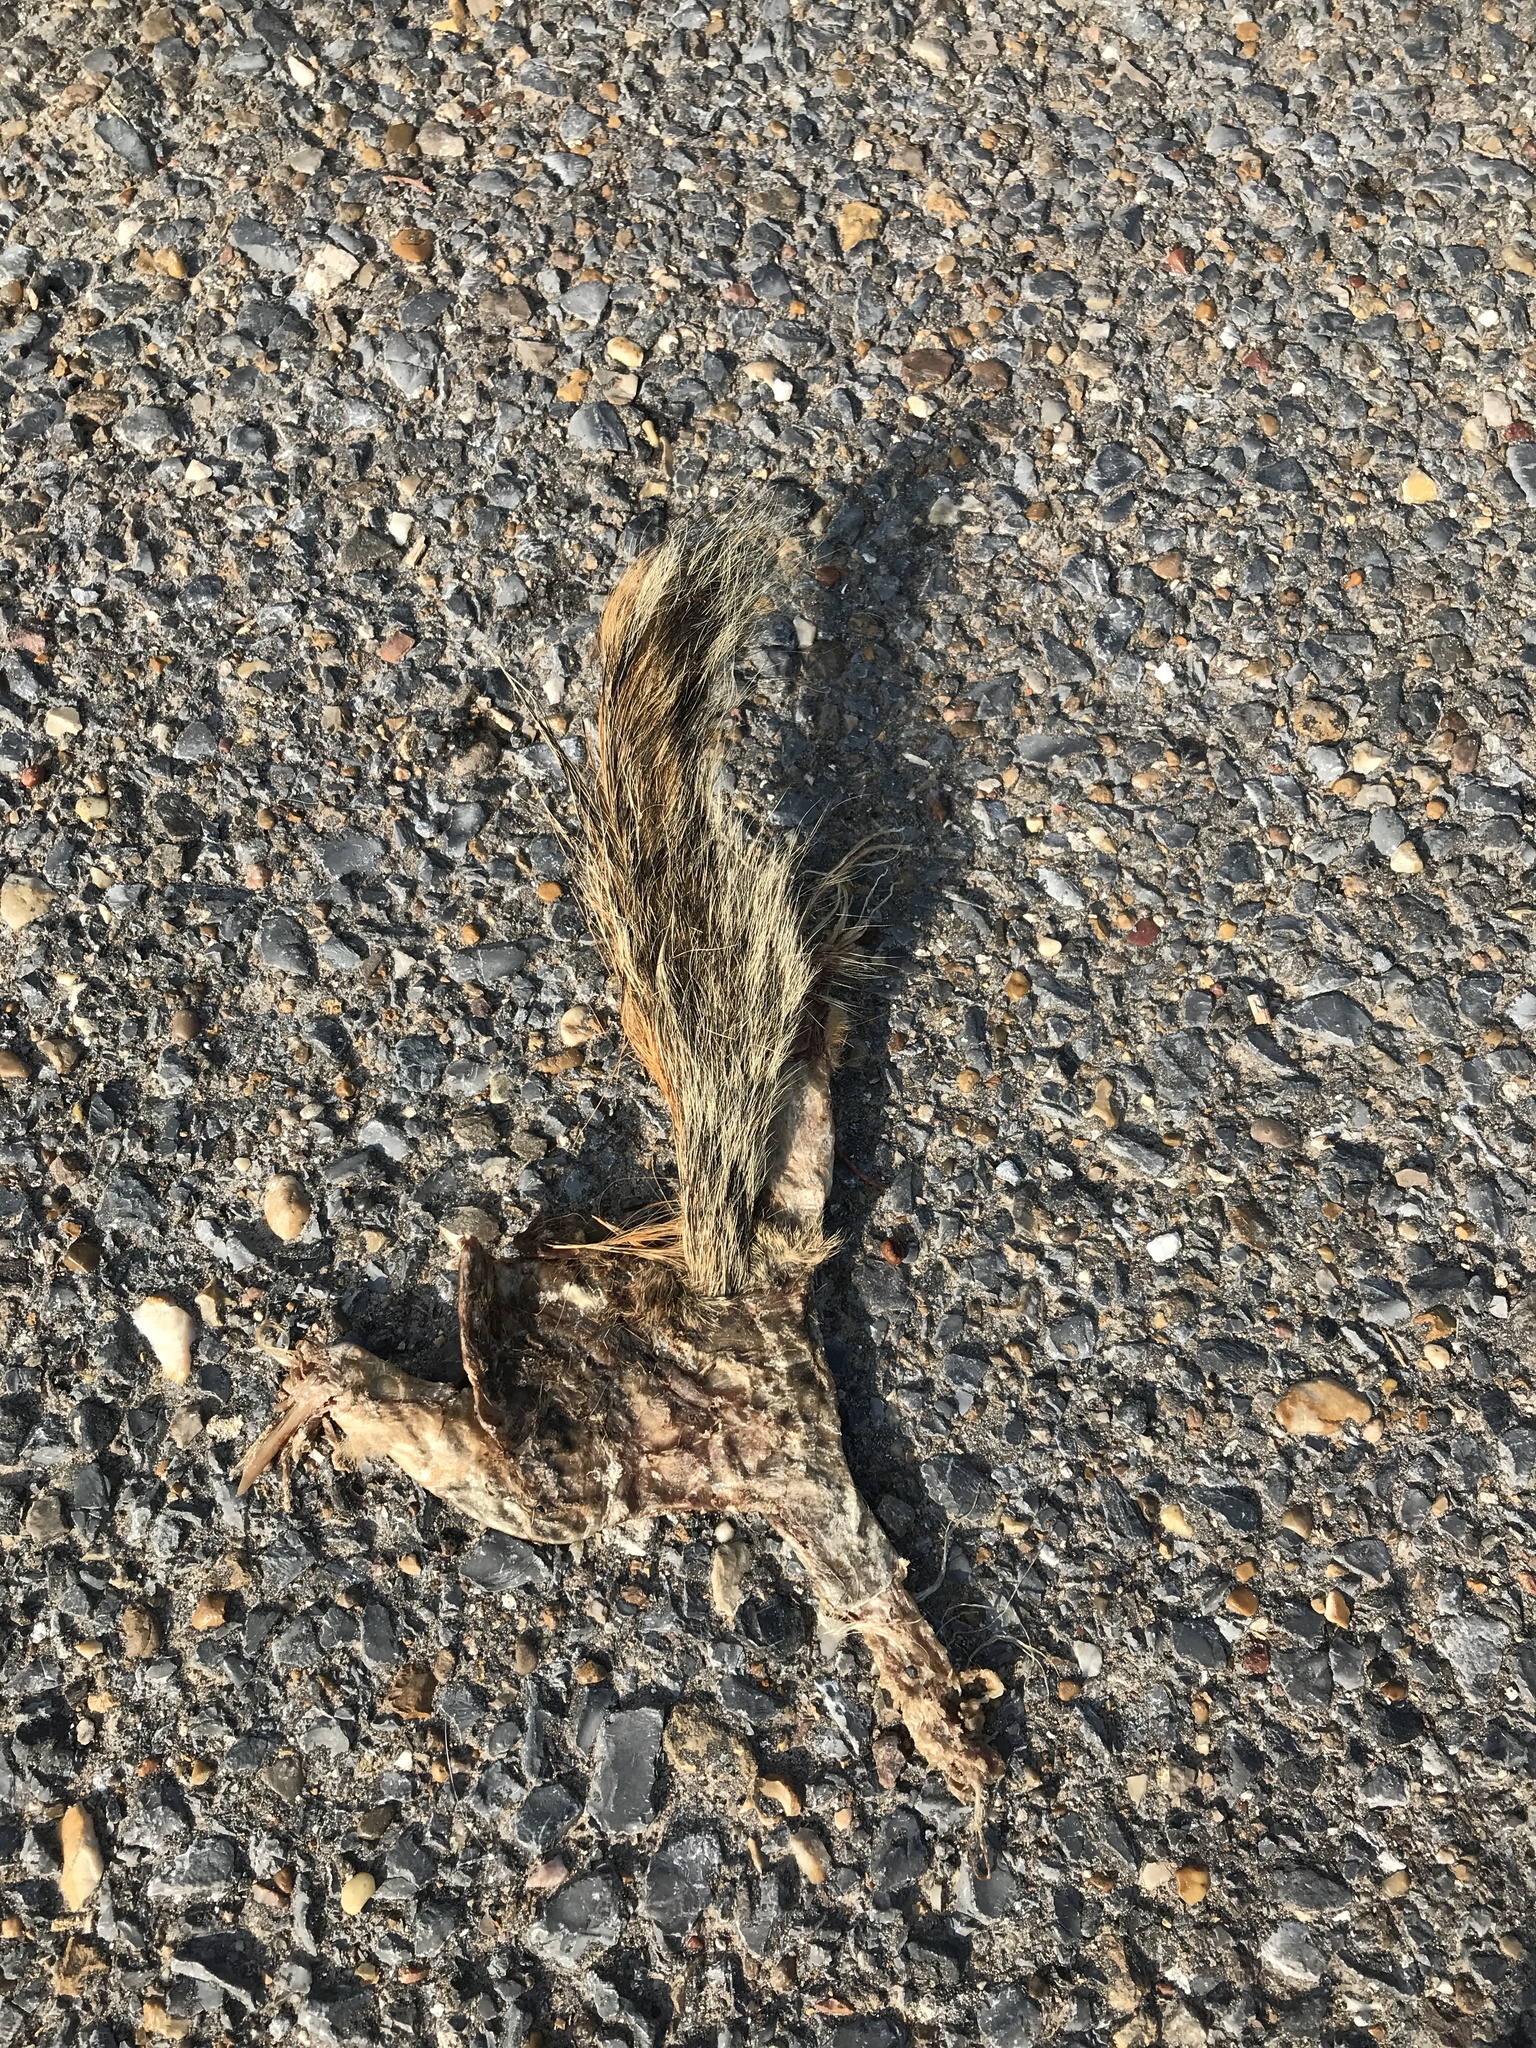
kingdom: Animalia
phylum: Chordata
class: Mammalia
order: Rodentia
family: Sciuridae
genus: Sciurus
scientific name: Sciurus niger
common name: Fox squirrel
